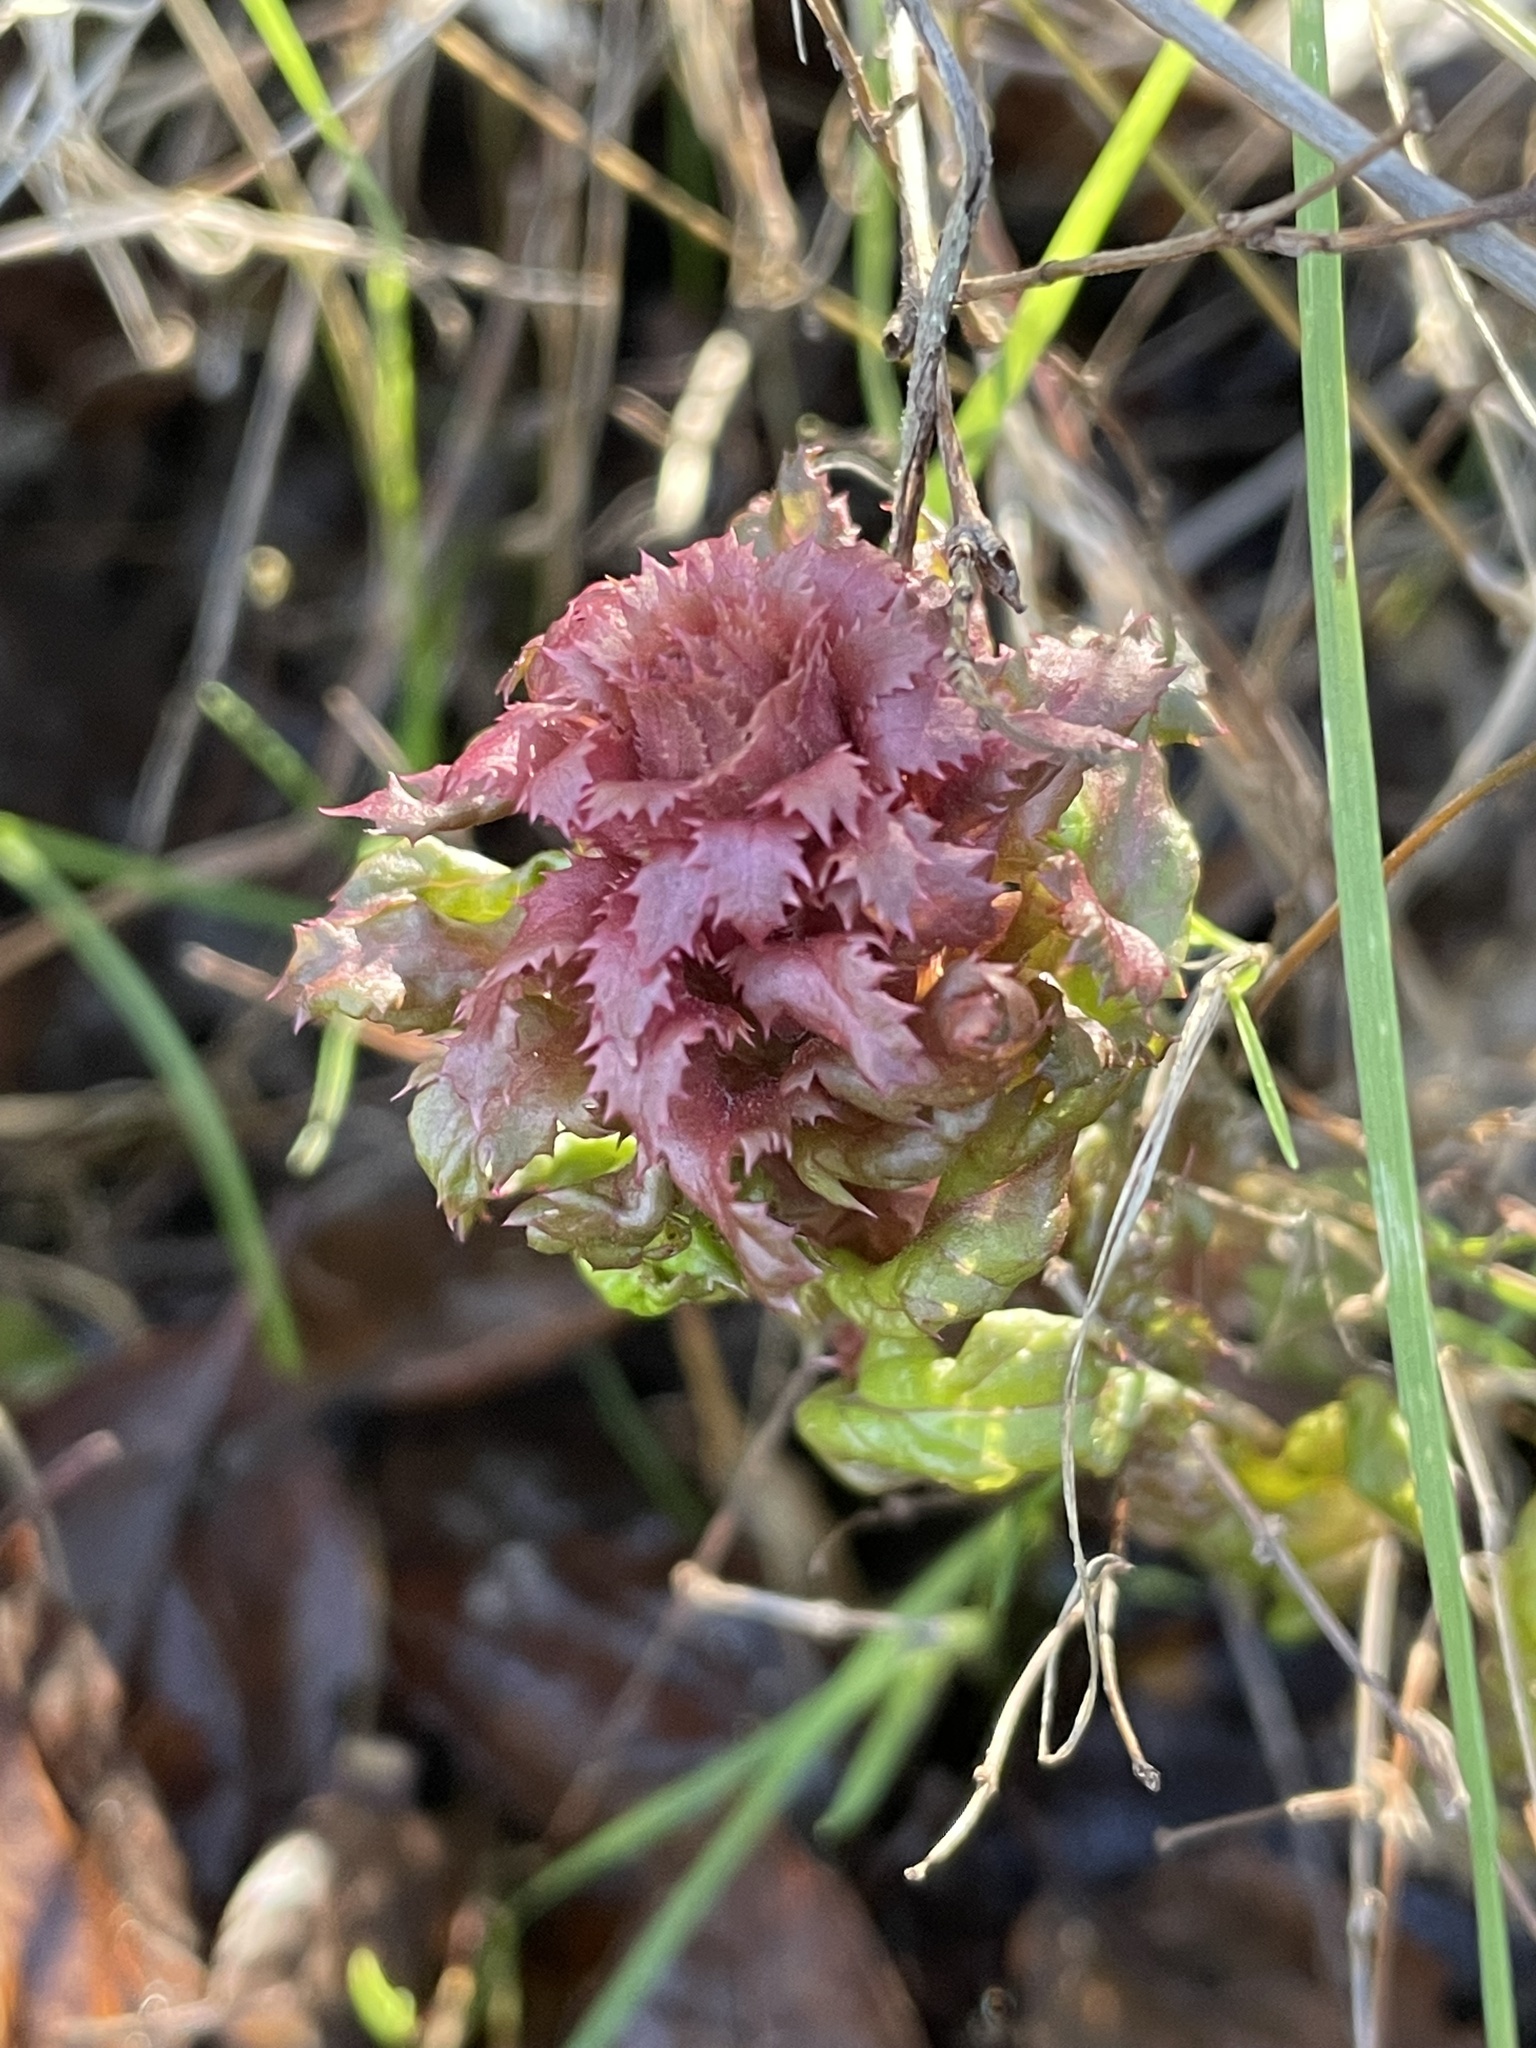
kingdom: Plantae
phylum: Tracheophyta
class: Magnoliopsida
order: Lamiales
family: Orobanchaceae
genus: Pedicularis
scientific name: Pedicularis densiflora
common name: Indian warrior
